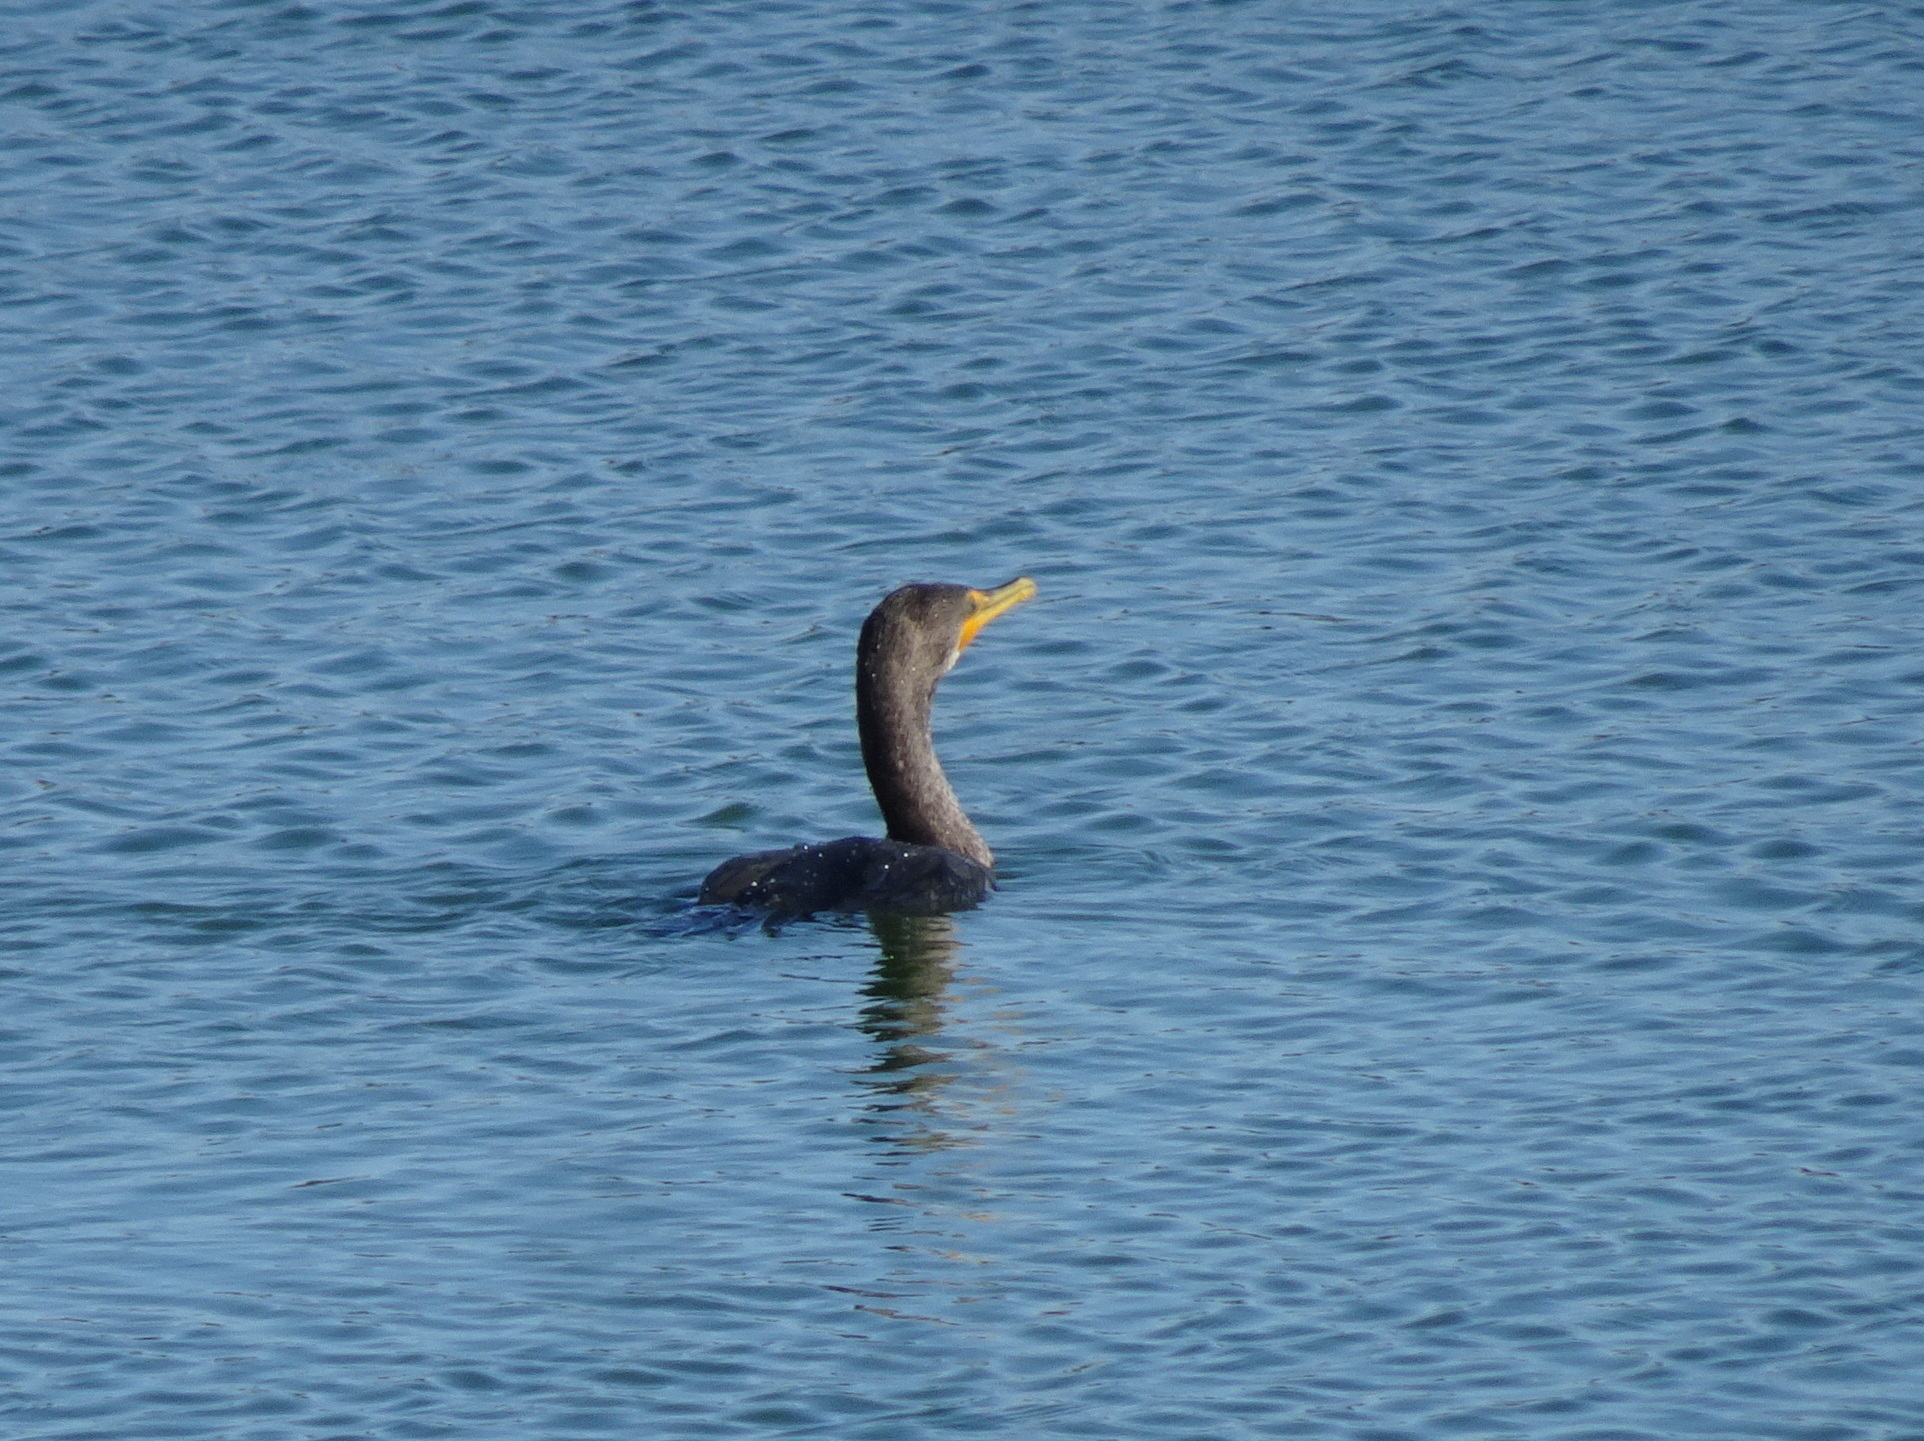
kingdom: Animalia
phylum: Chordata
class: Aves
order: Suliformes
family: Phalacrocoracidae
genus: Phalacrocorax
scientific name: Phalacrocorax auritus
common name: Double-crested cormorant
